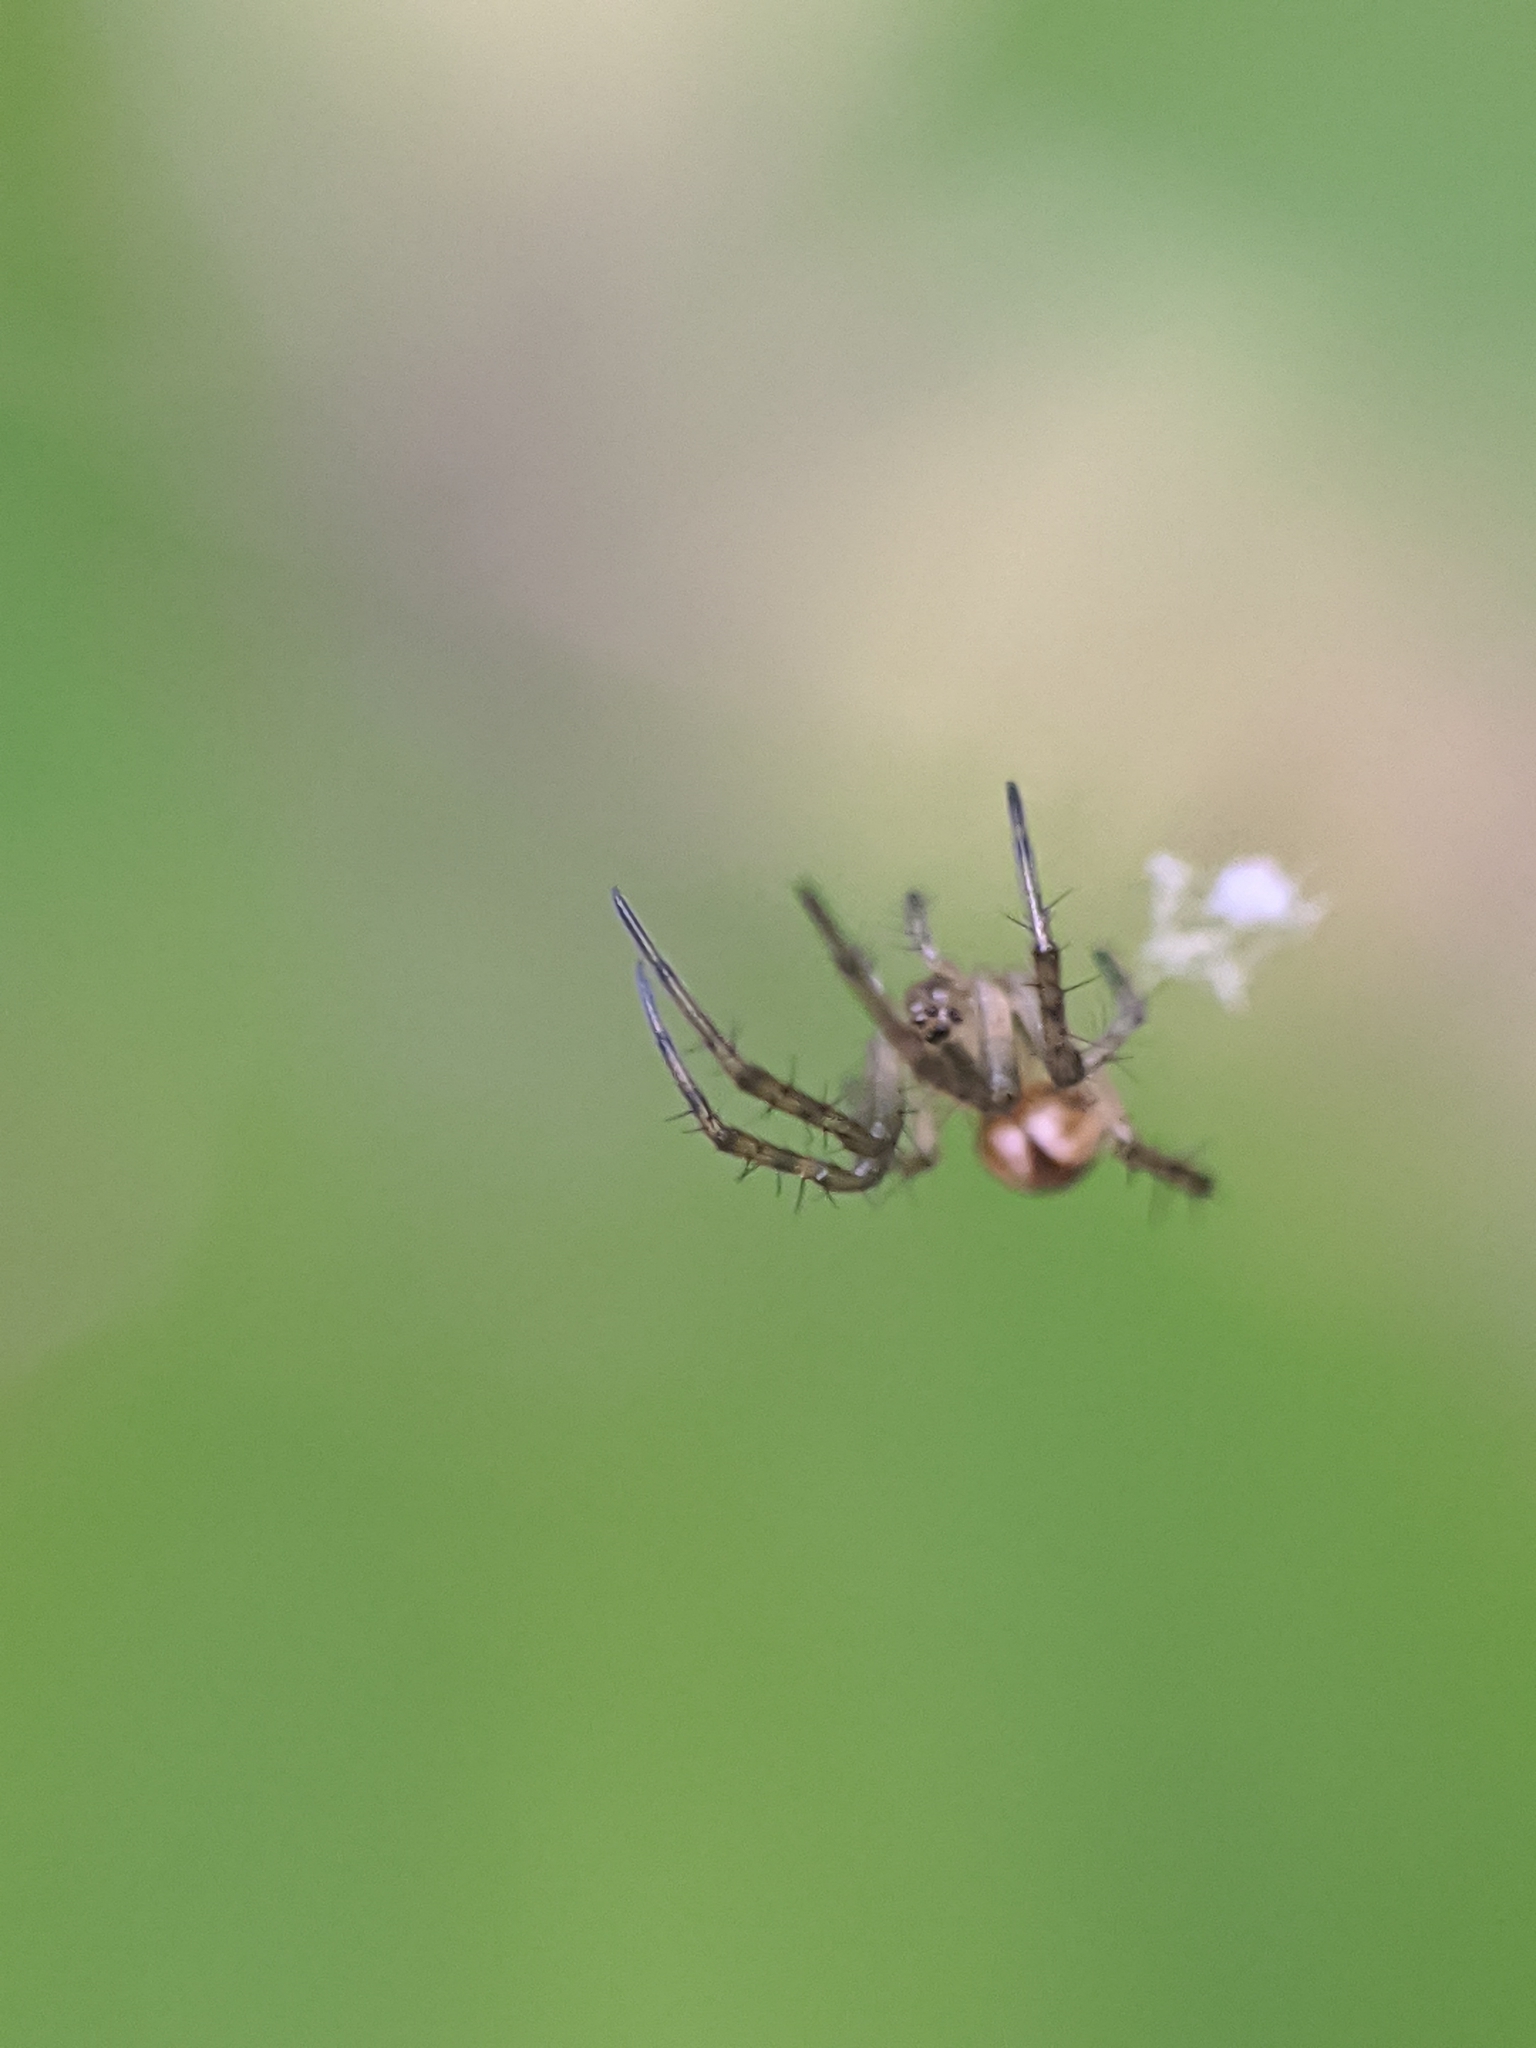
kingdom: Animalia
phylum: Arthropoda
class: Arachnida
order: Araneae
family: Araneidae
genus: Mangora
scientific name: Mangora placida
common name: Tuft-legged orbweaver
